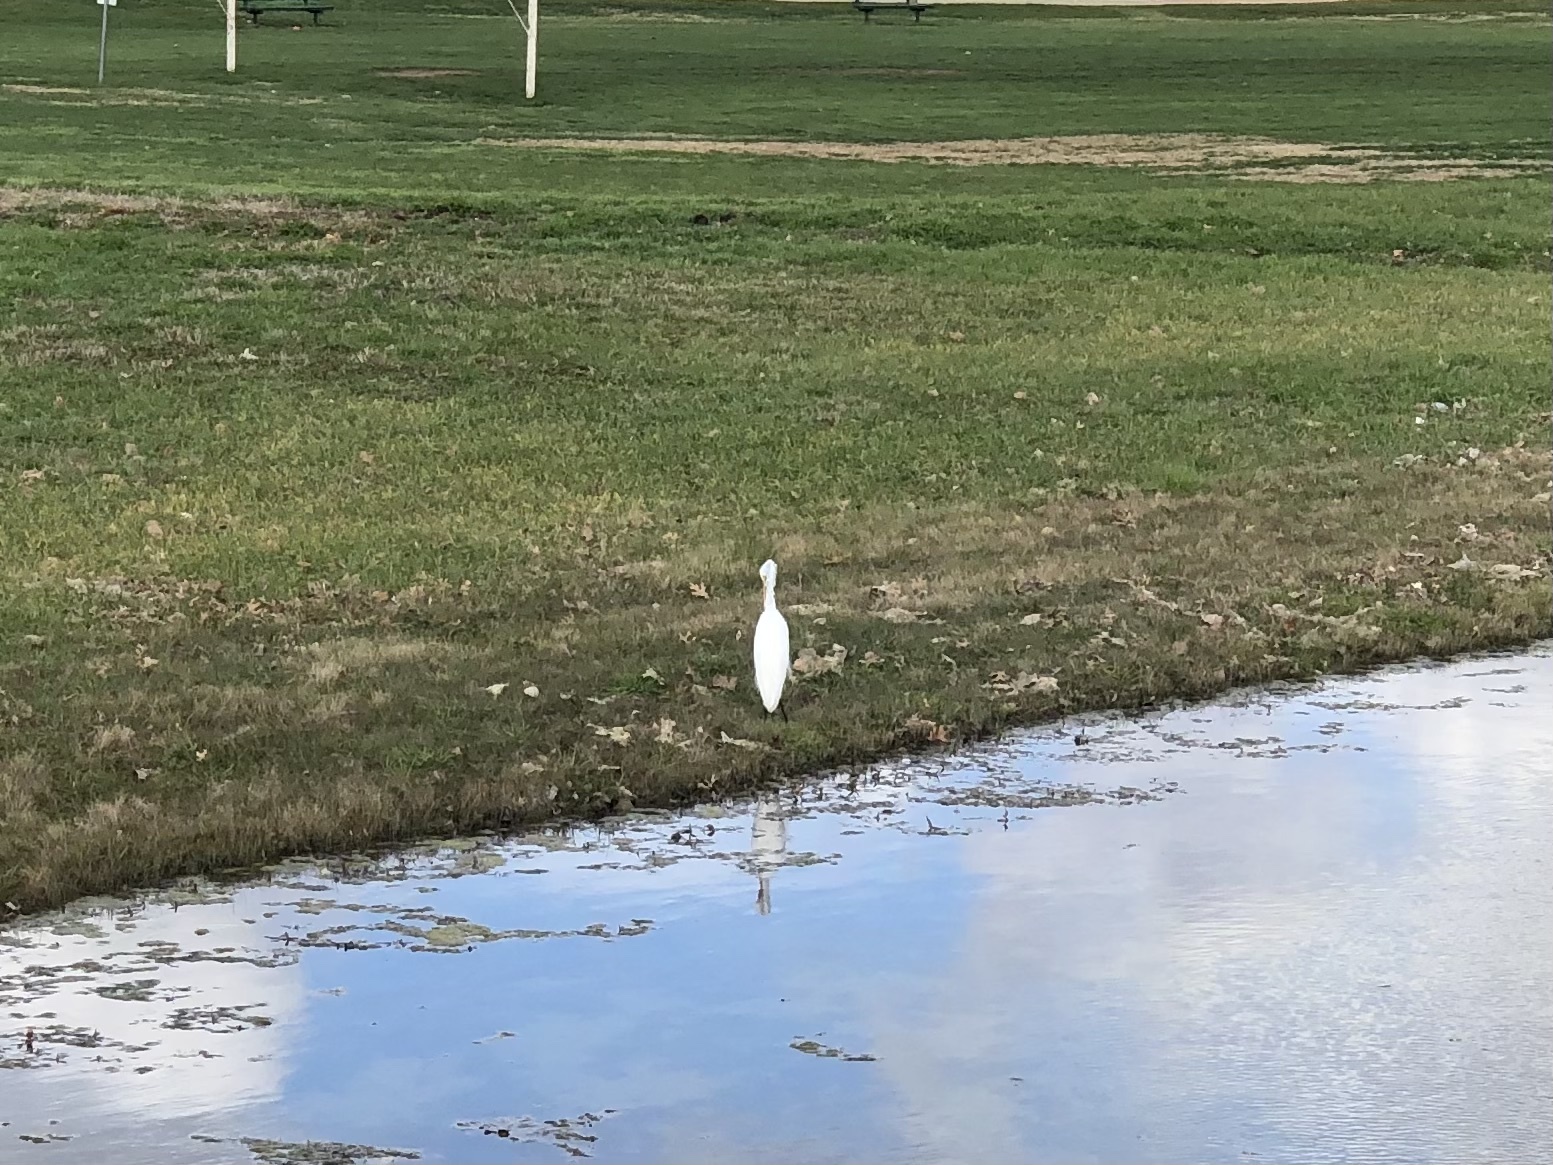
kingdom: Animalia
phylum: Chordata
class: Aves
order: Pelecaniformes
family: Ardeidae
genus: Ardea
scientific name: Ardea alba
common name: Great egret
